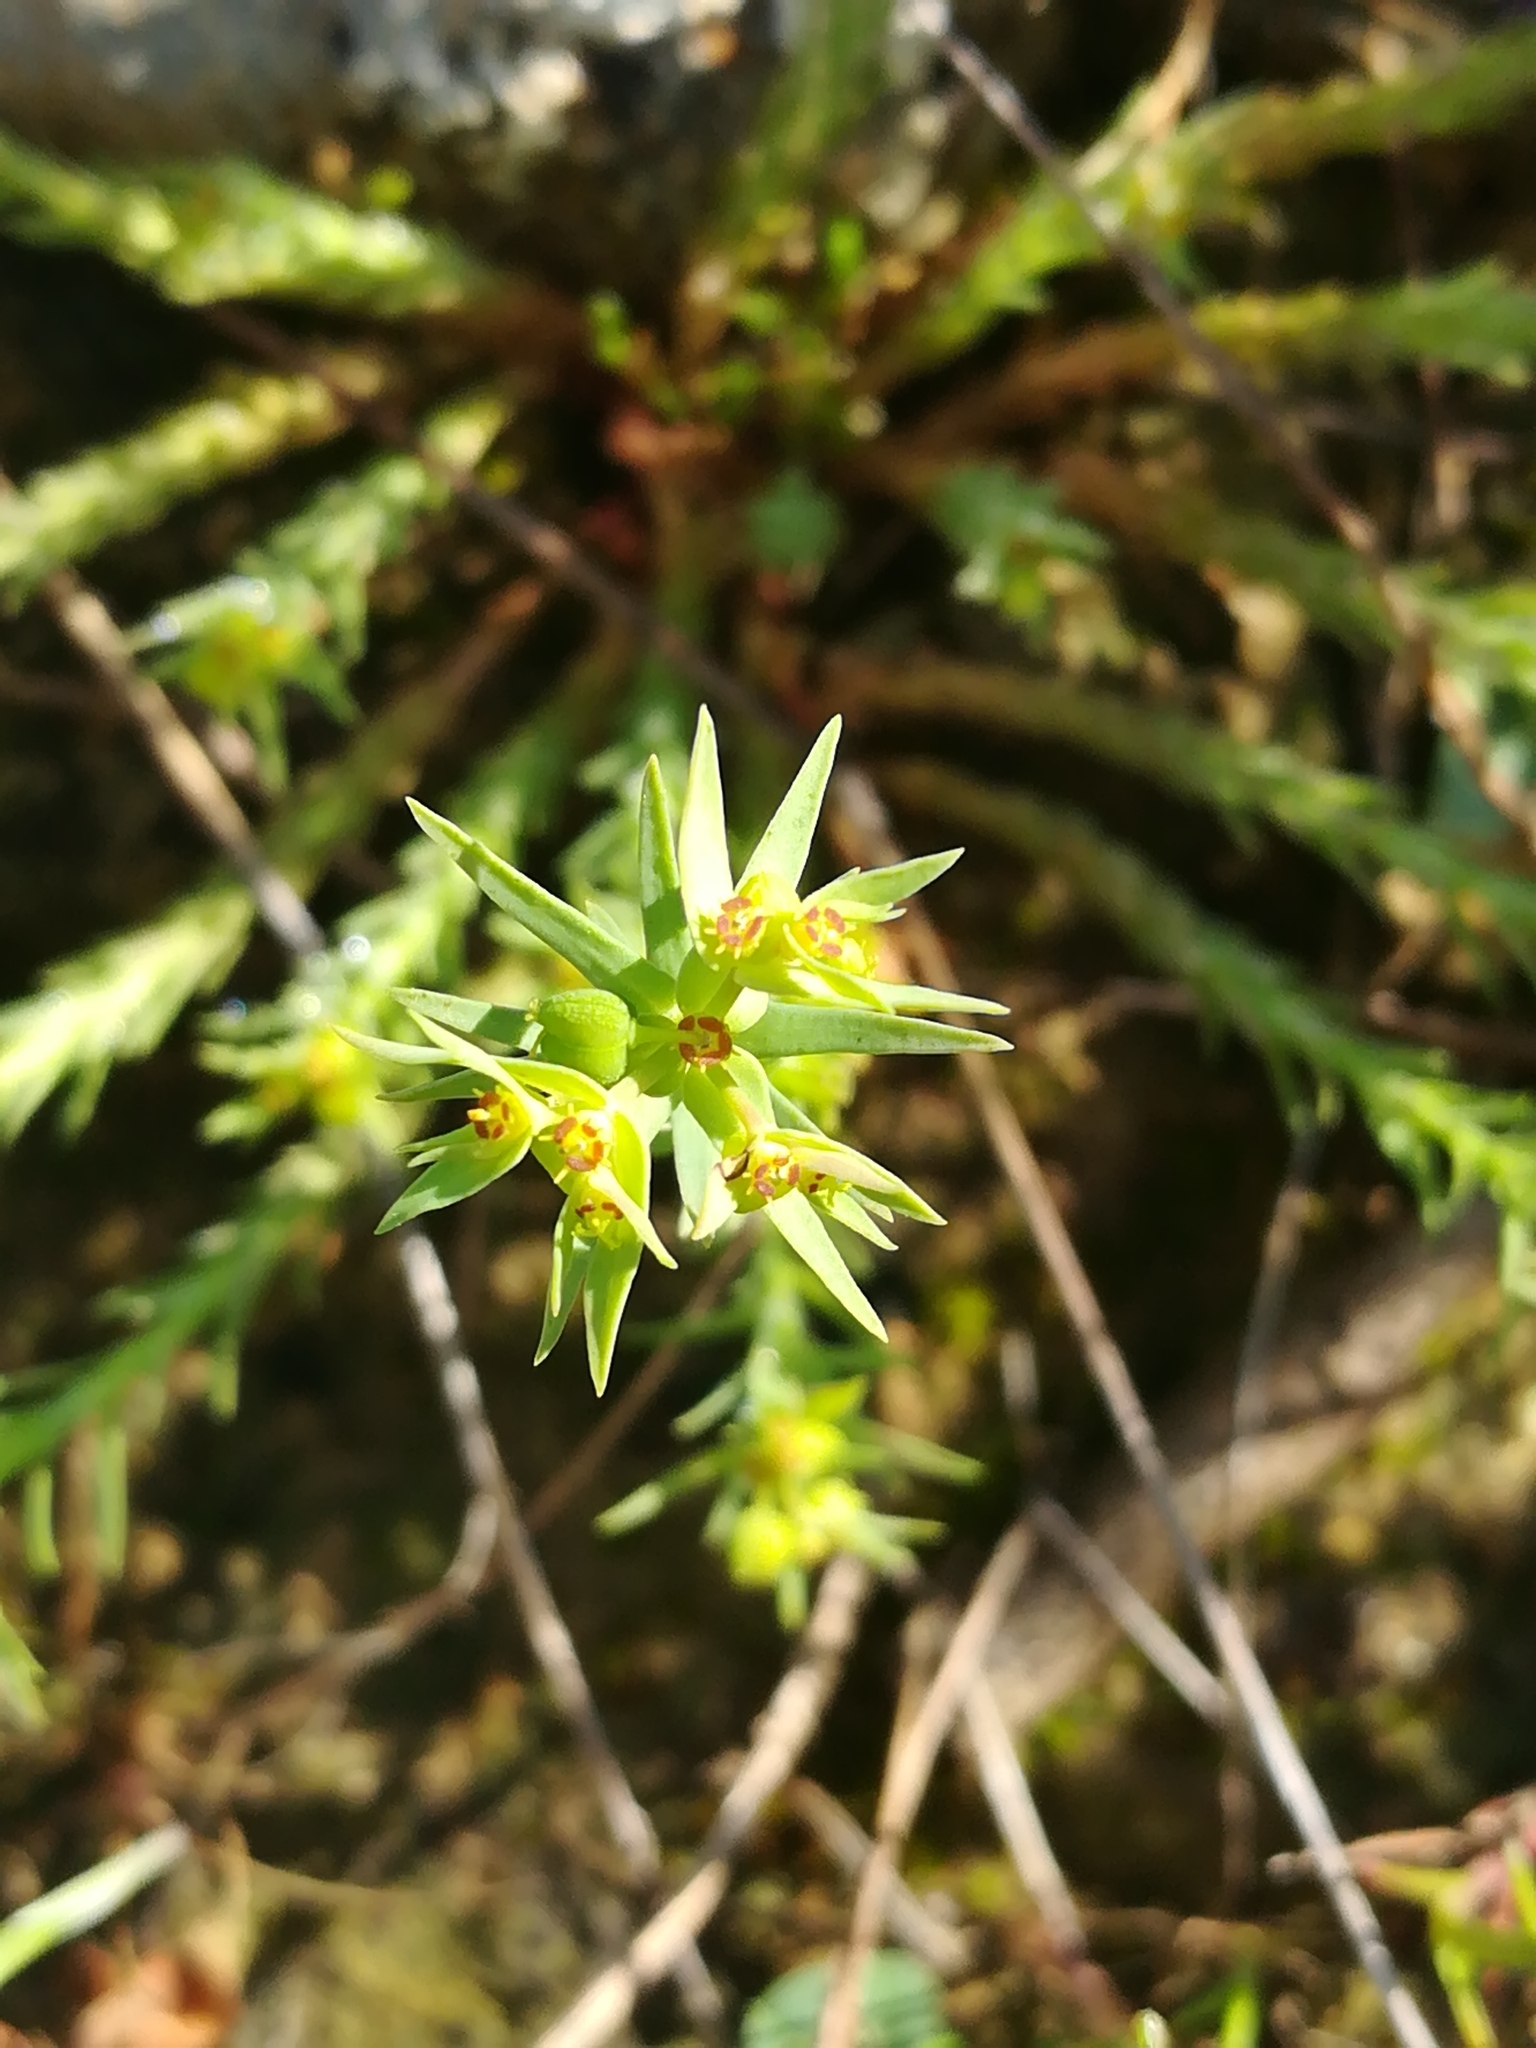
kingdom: Plantae
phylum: Tracheophyta
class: Magnoliopsida
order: Malpighiales
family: Euphorbiaceae
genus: Euphorbia
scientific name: Euphorbia exigua
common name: Dwarf spurge
